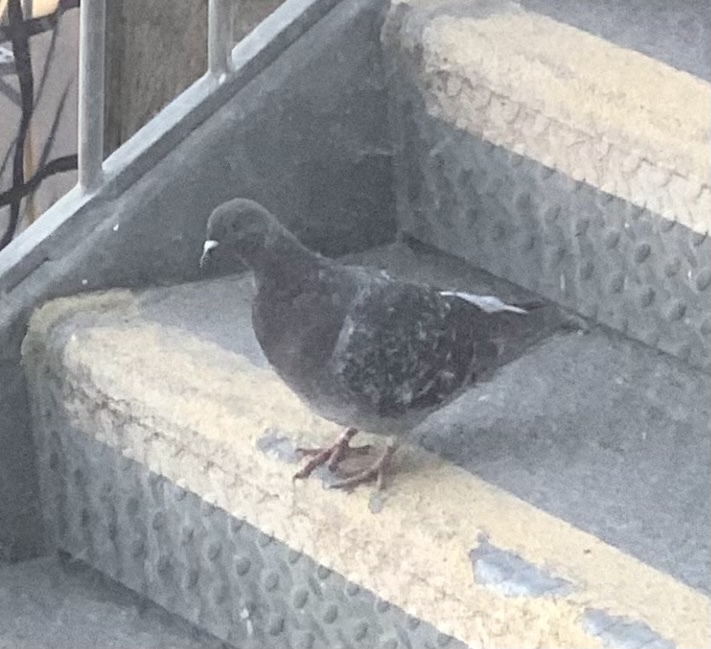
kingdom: Animalia
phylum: Chordata
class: Aves
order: Columbiformes
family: Columbidae
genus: Columba
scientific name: Columba livia
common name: Rock pigeon
